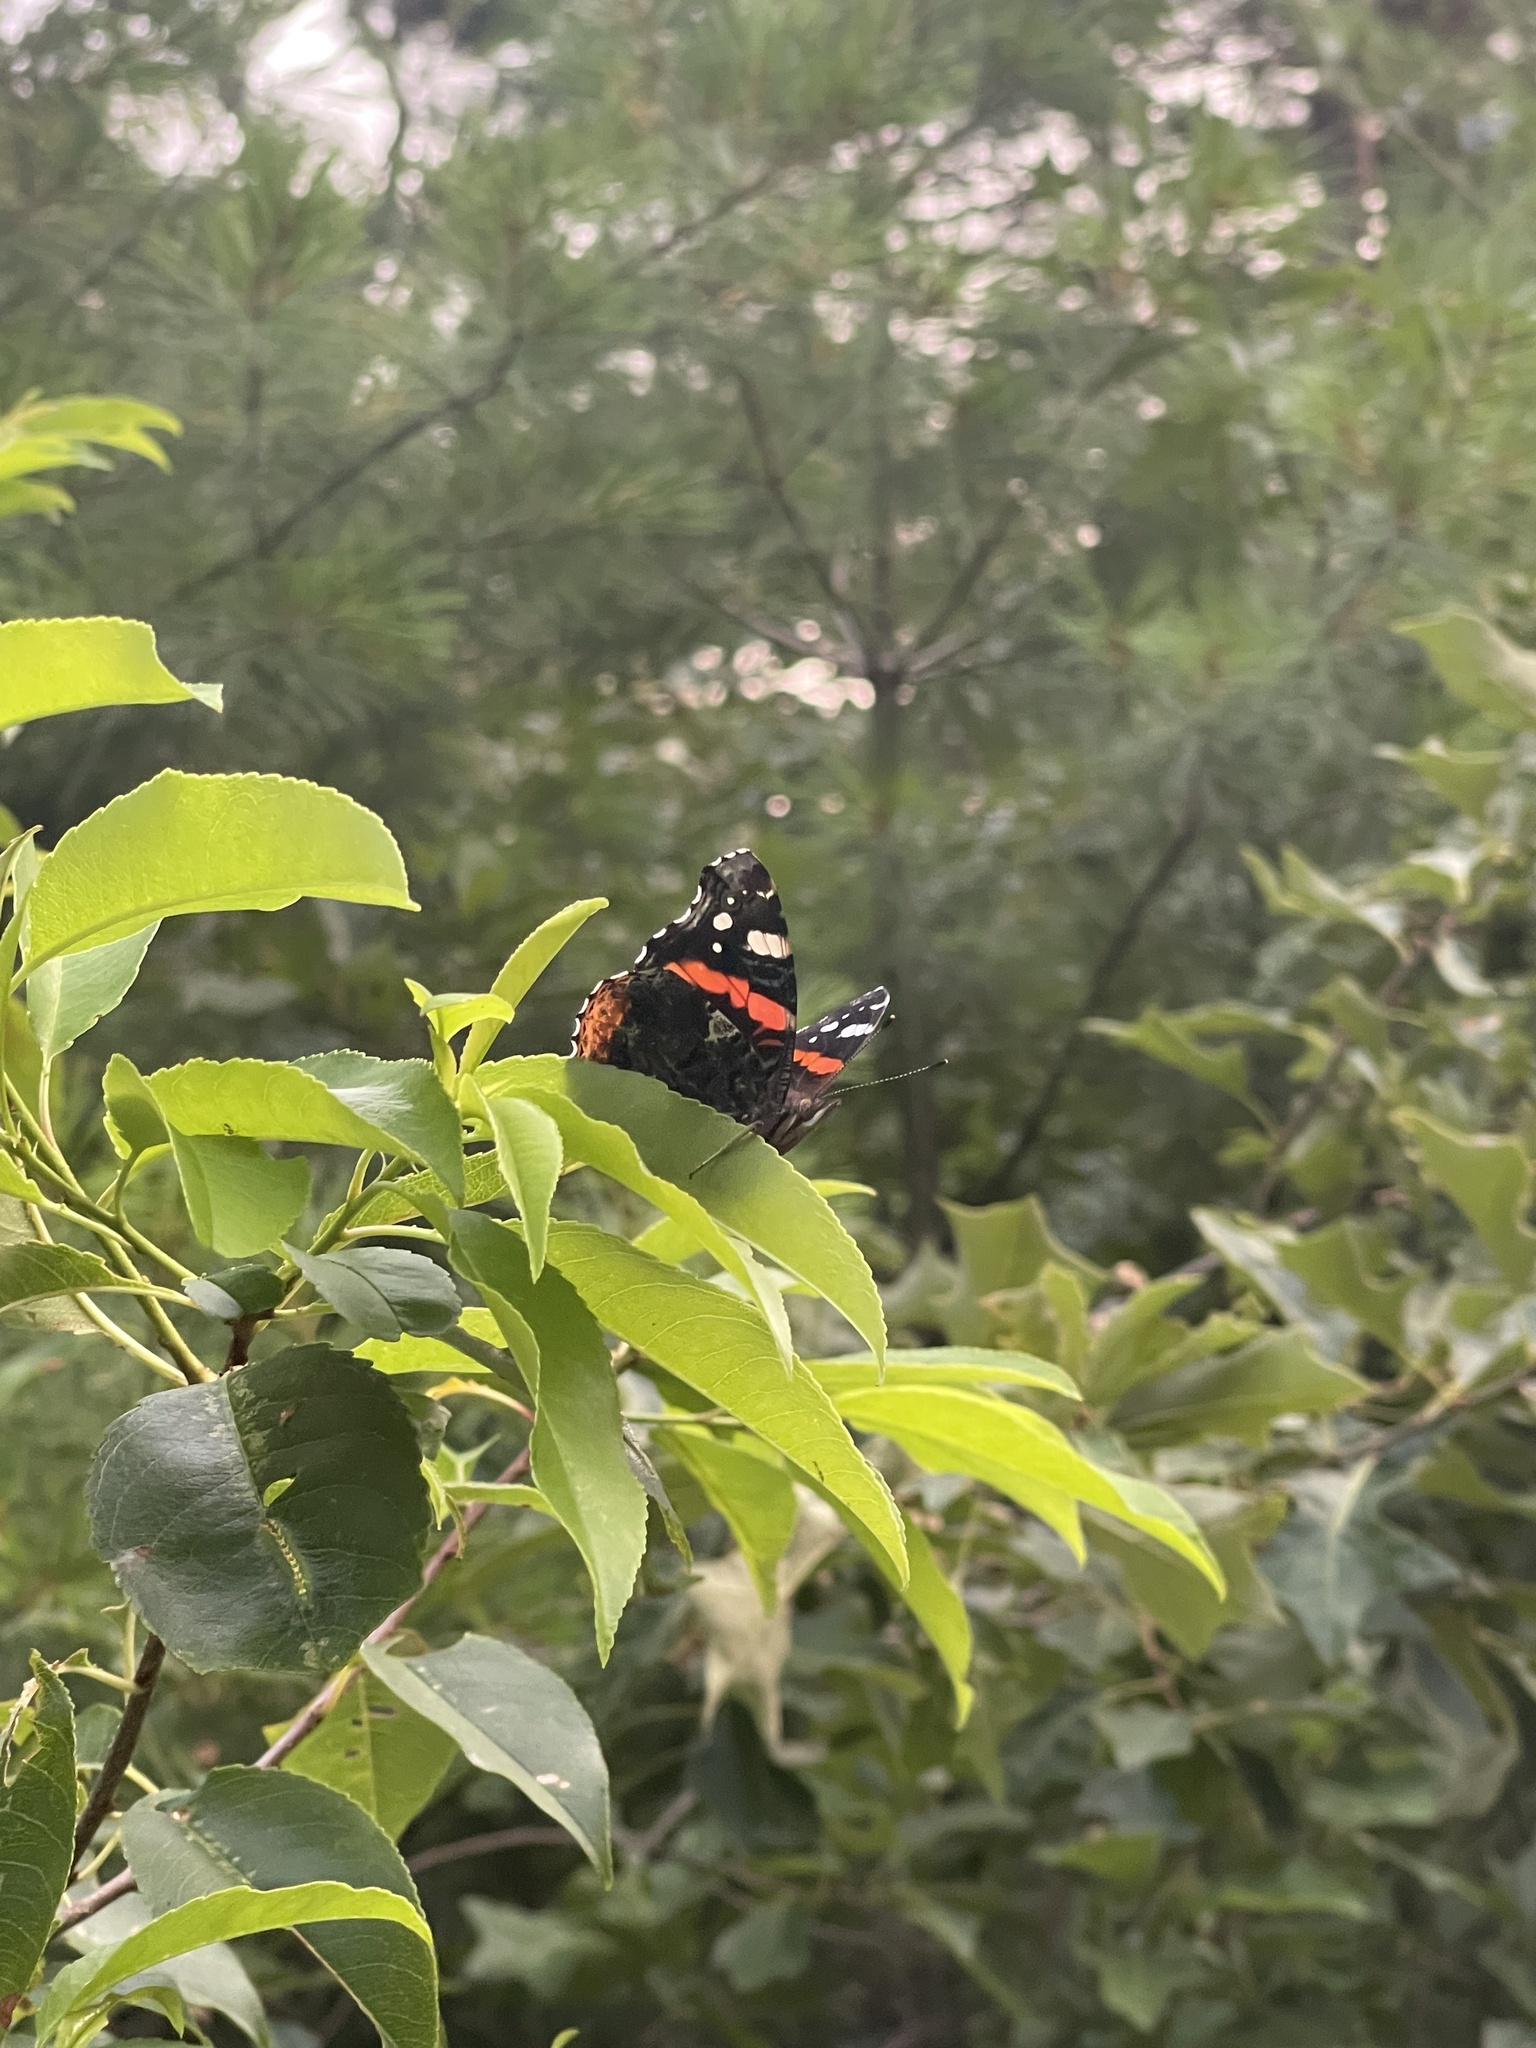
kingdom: Animalia
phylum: Arthropoda
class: Insecta
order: Lepidoptera
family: Nymphalidae
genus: Vanessa
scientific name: Vanessa atalanta
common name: Red admiral
